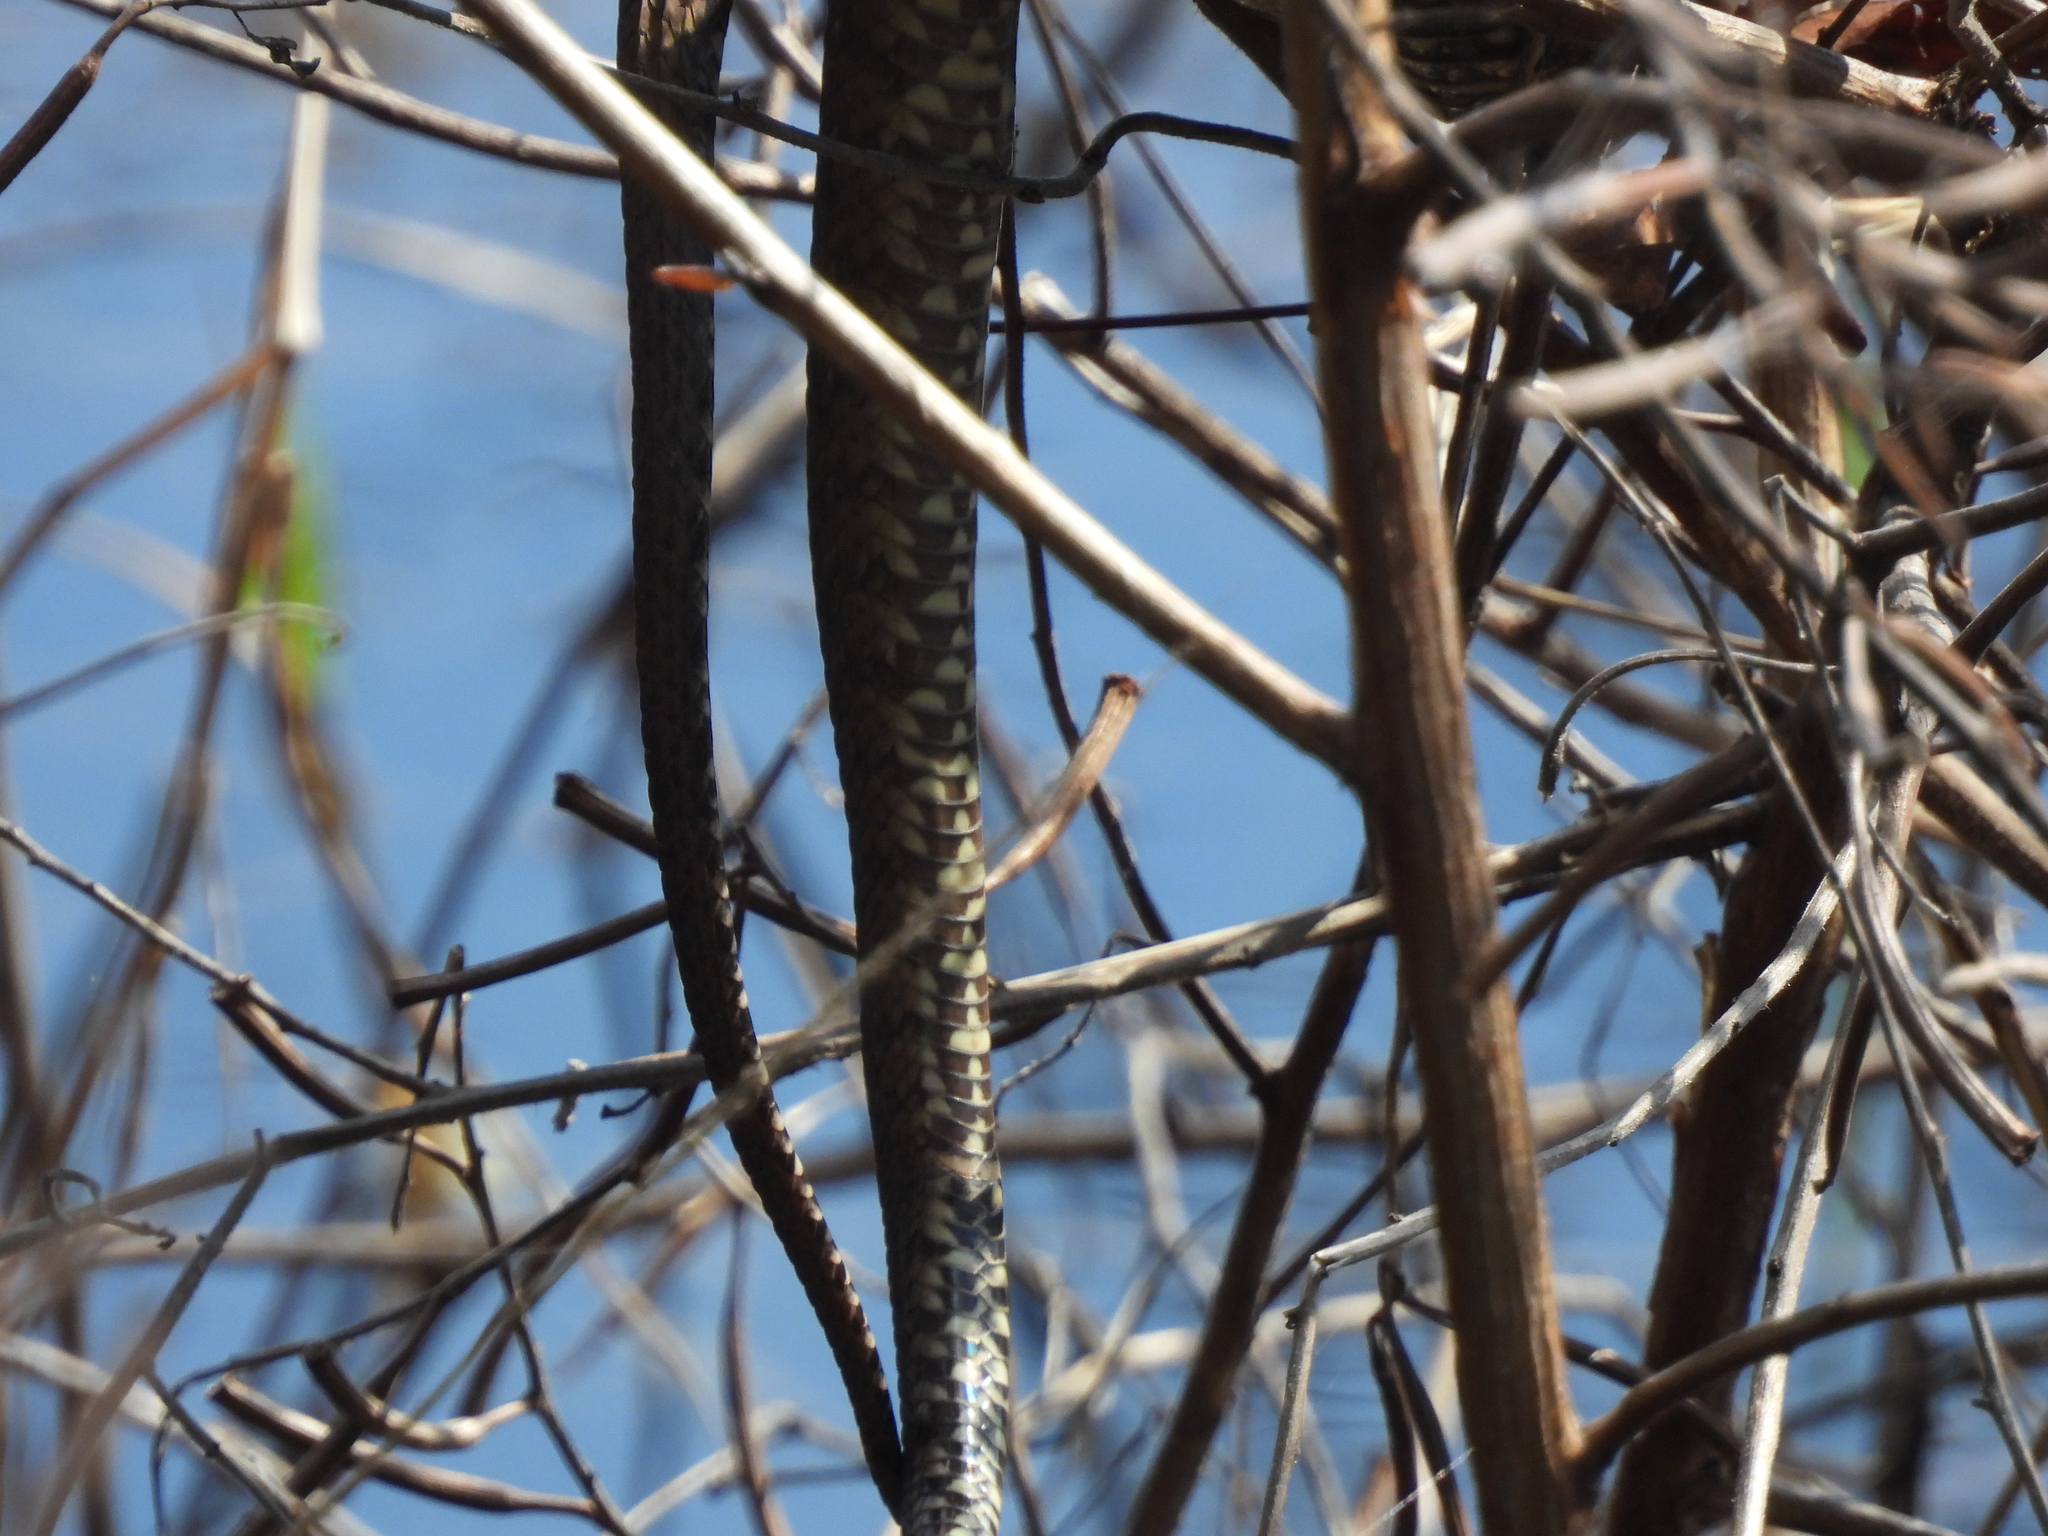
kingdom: Animalia
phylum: Chordata
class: Squamata
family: Colubridae
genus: Nerodia
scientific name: Nerodia cyclopion
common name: Mississippi green water snake
